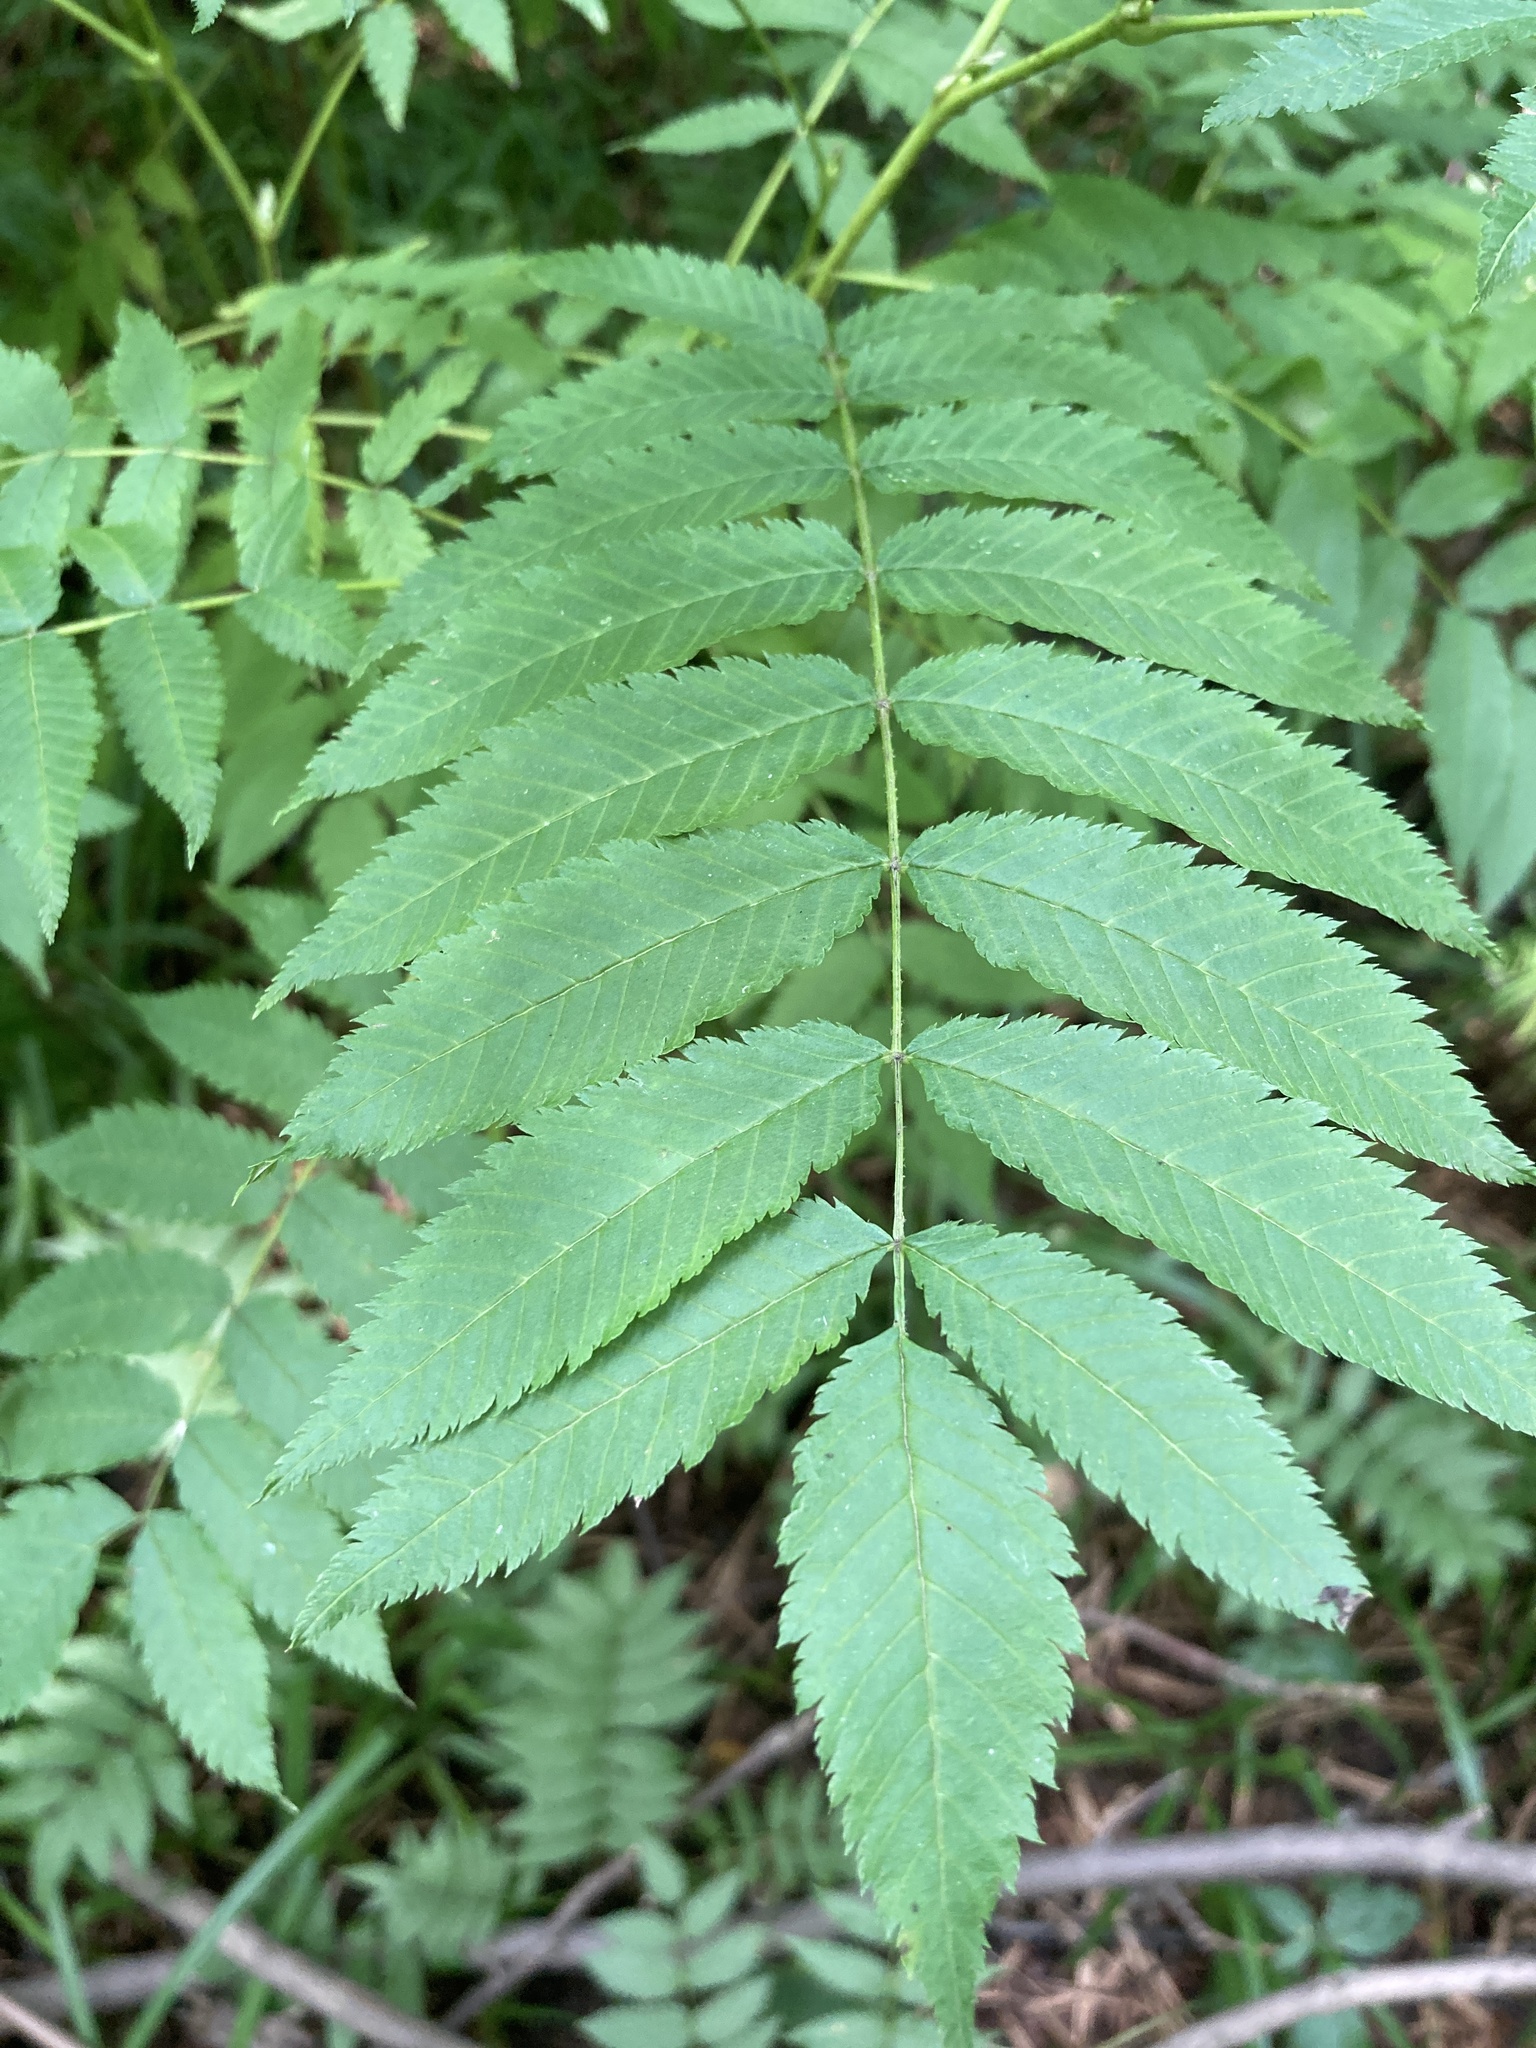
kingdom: Plantae
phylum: Tracheophyta
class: Magnoliopsida
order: Rosales
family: Rosaceae
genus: Sorbaria
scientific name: Sorbaria sorbifolia
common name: False spiraea
